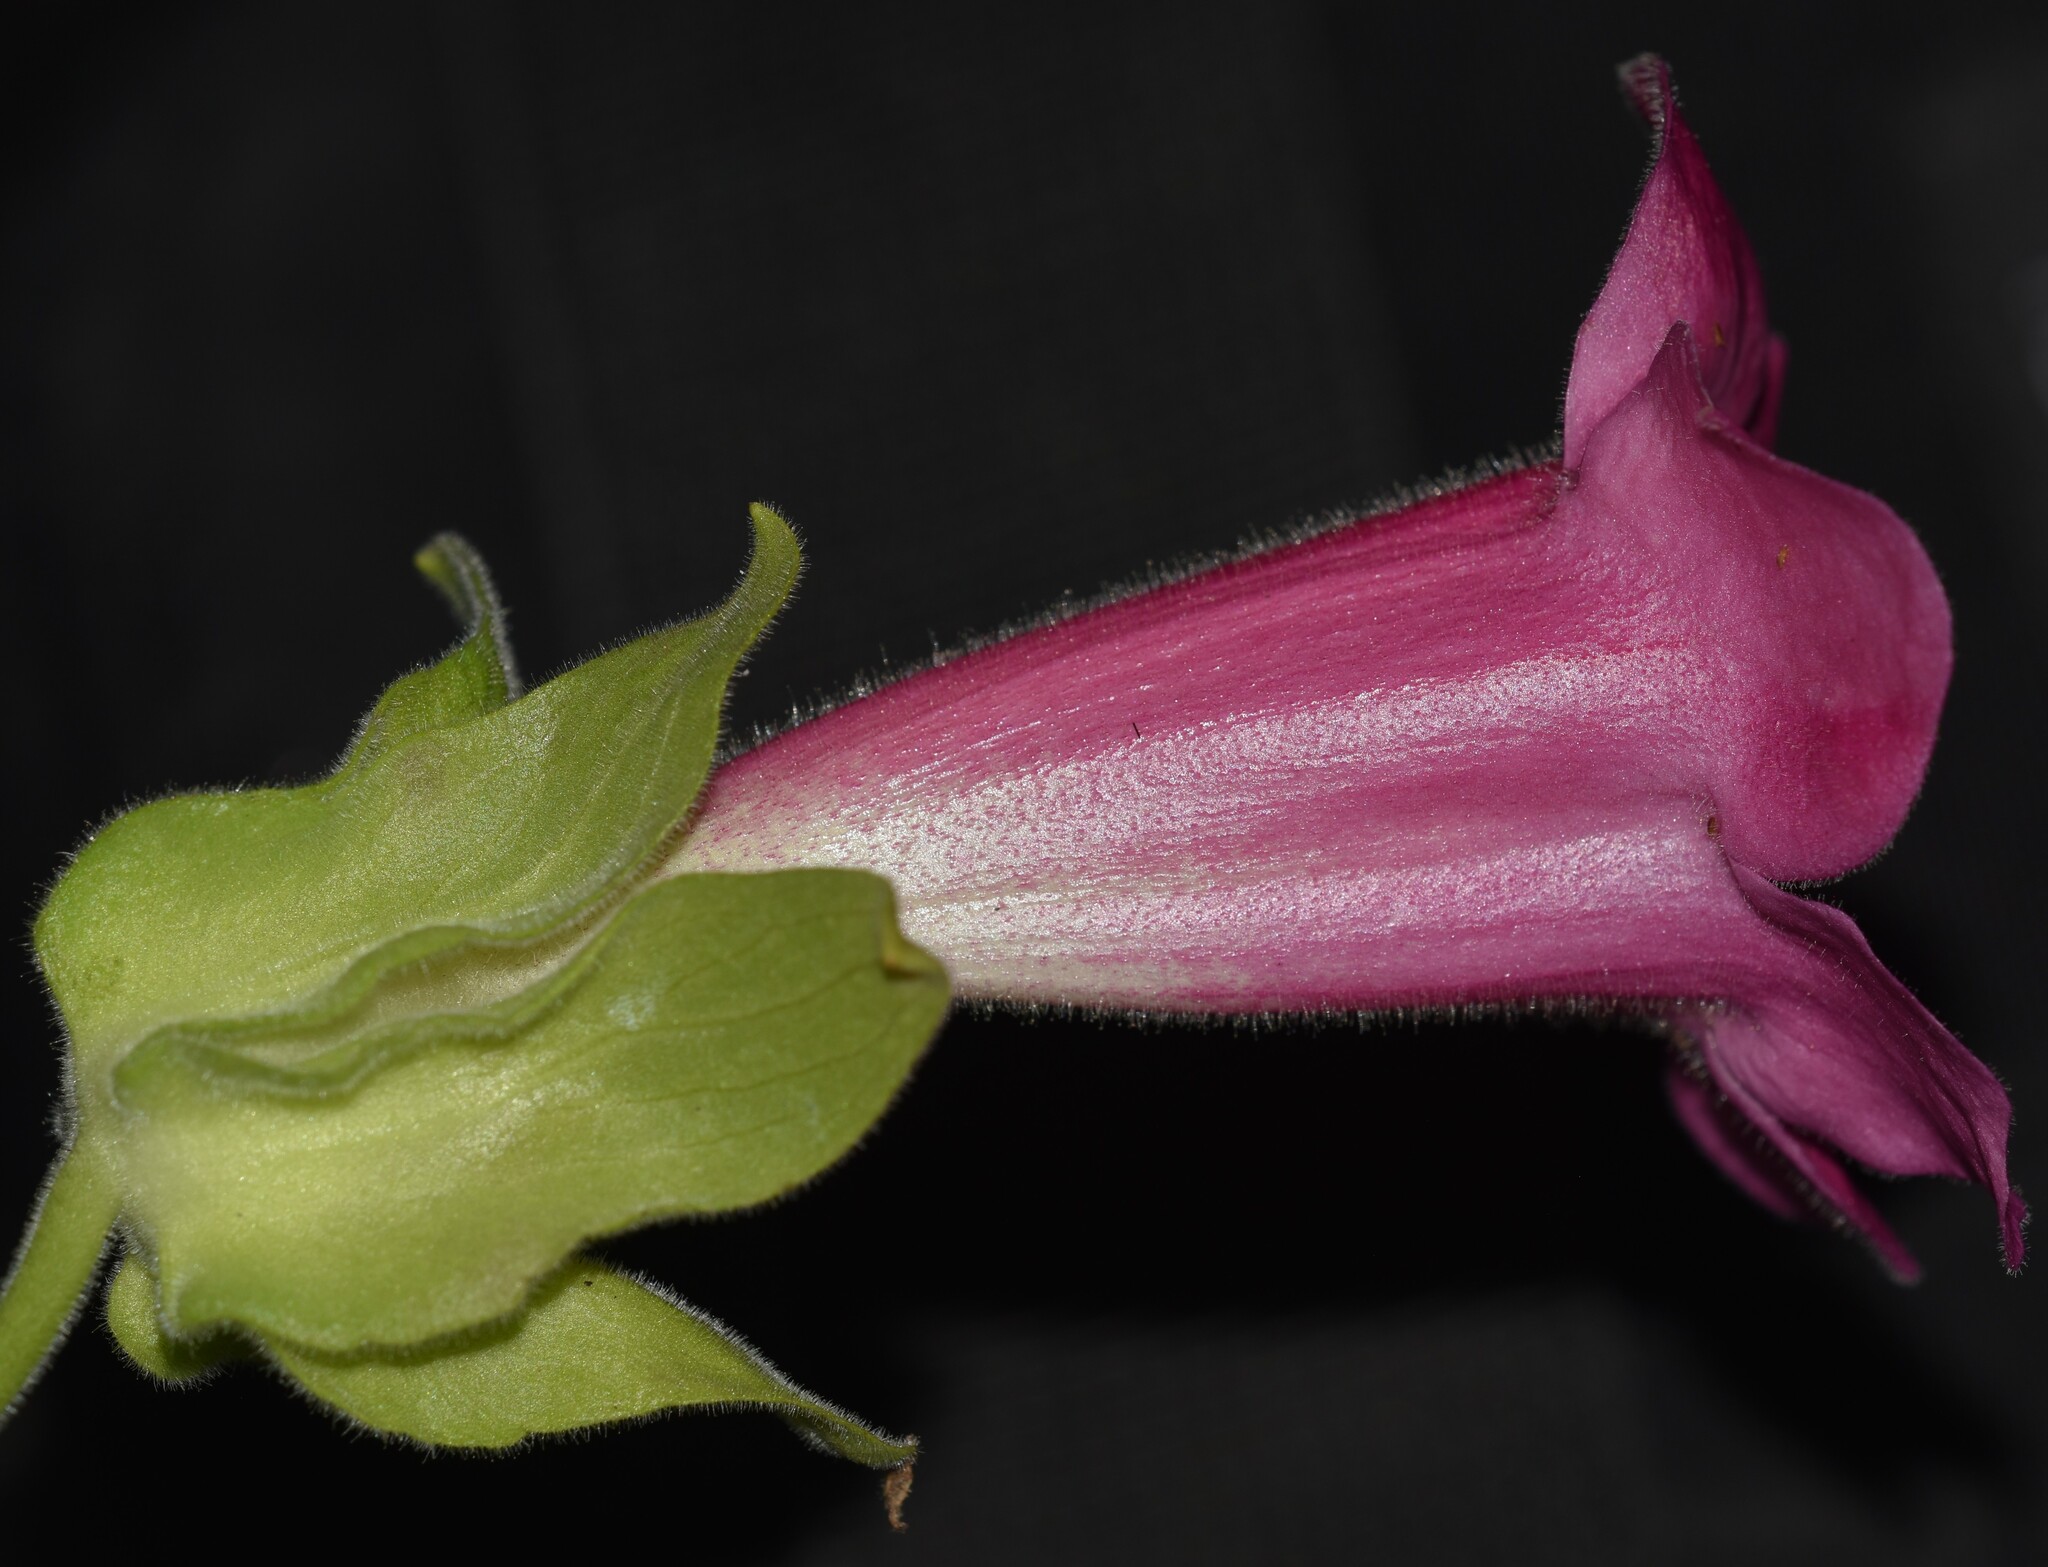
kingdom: Plantae
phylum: Tracheophyta
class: Magnoliopsida
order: Lamiales
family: Plantaginaceae
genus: Lophospermum
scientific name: Lophospermum erubescens
